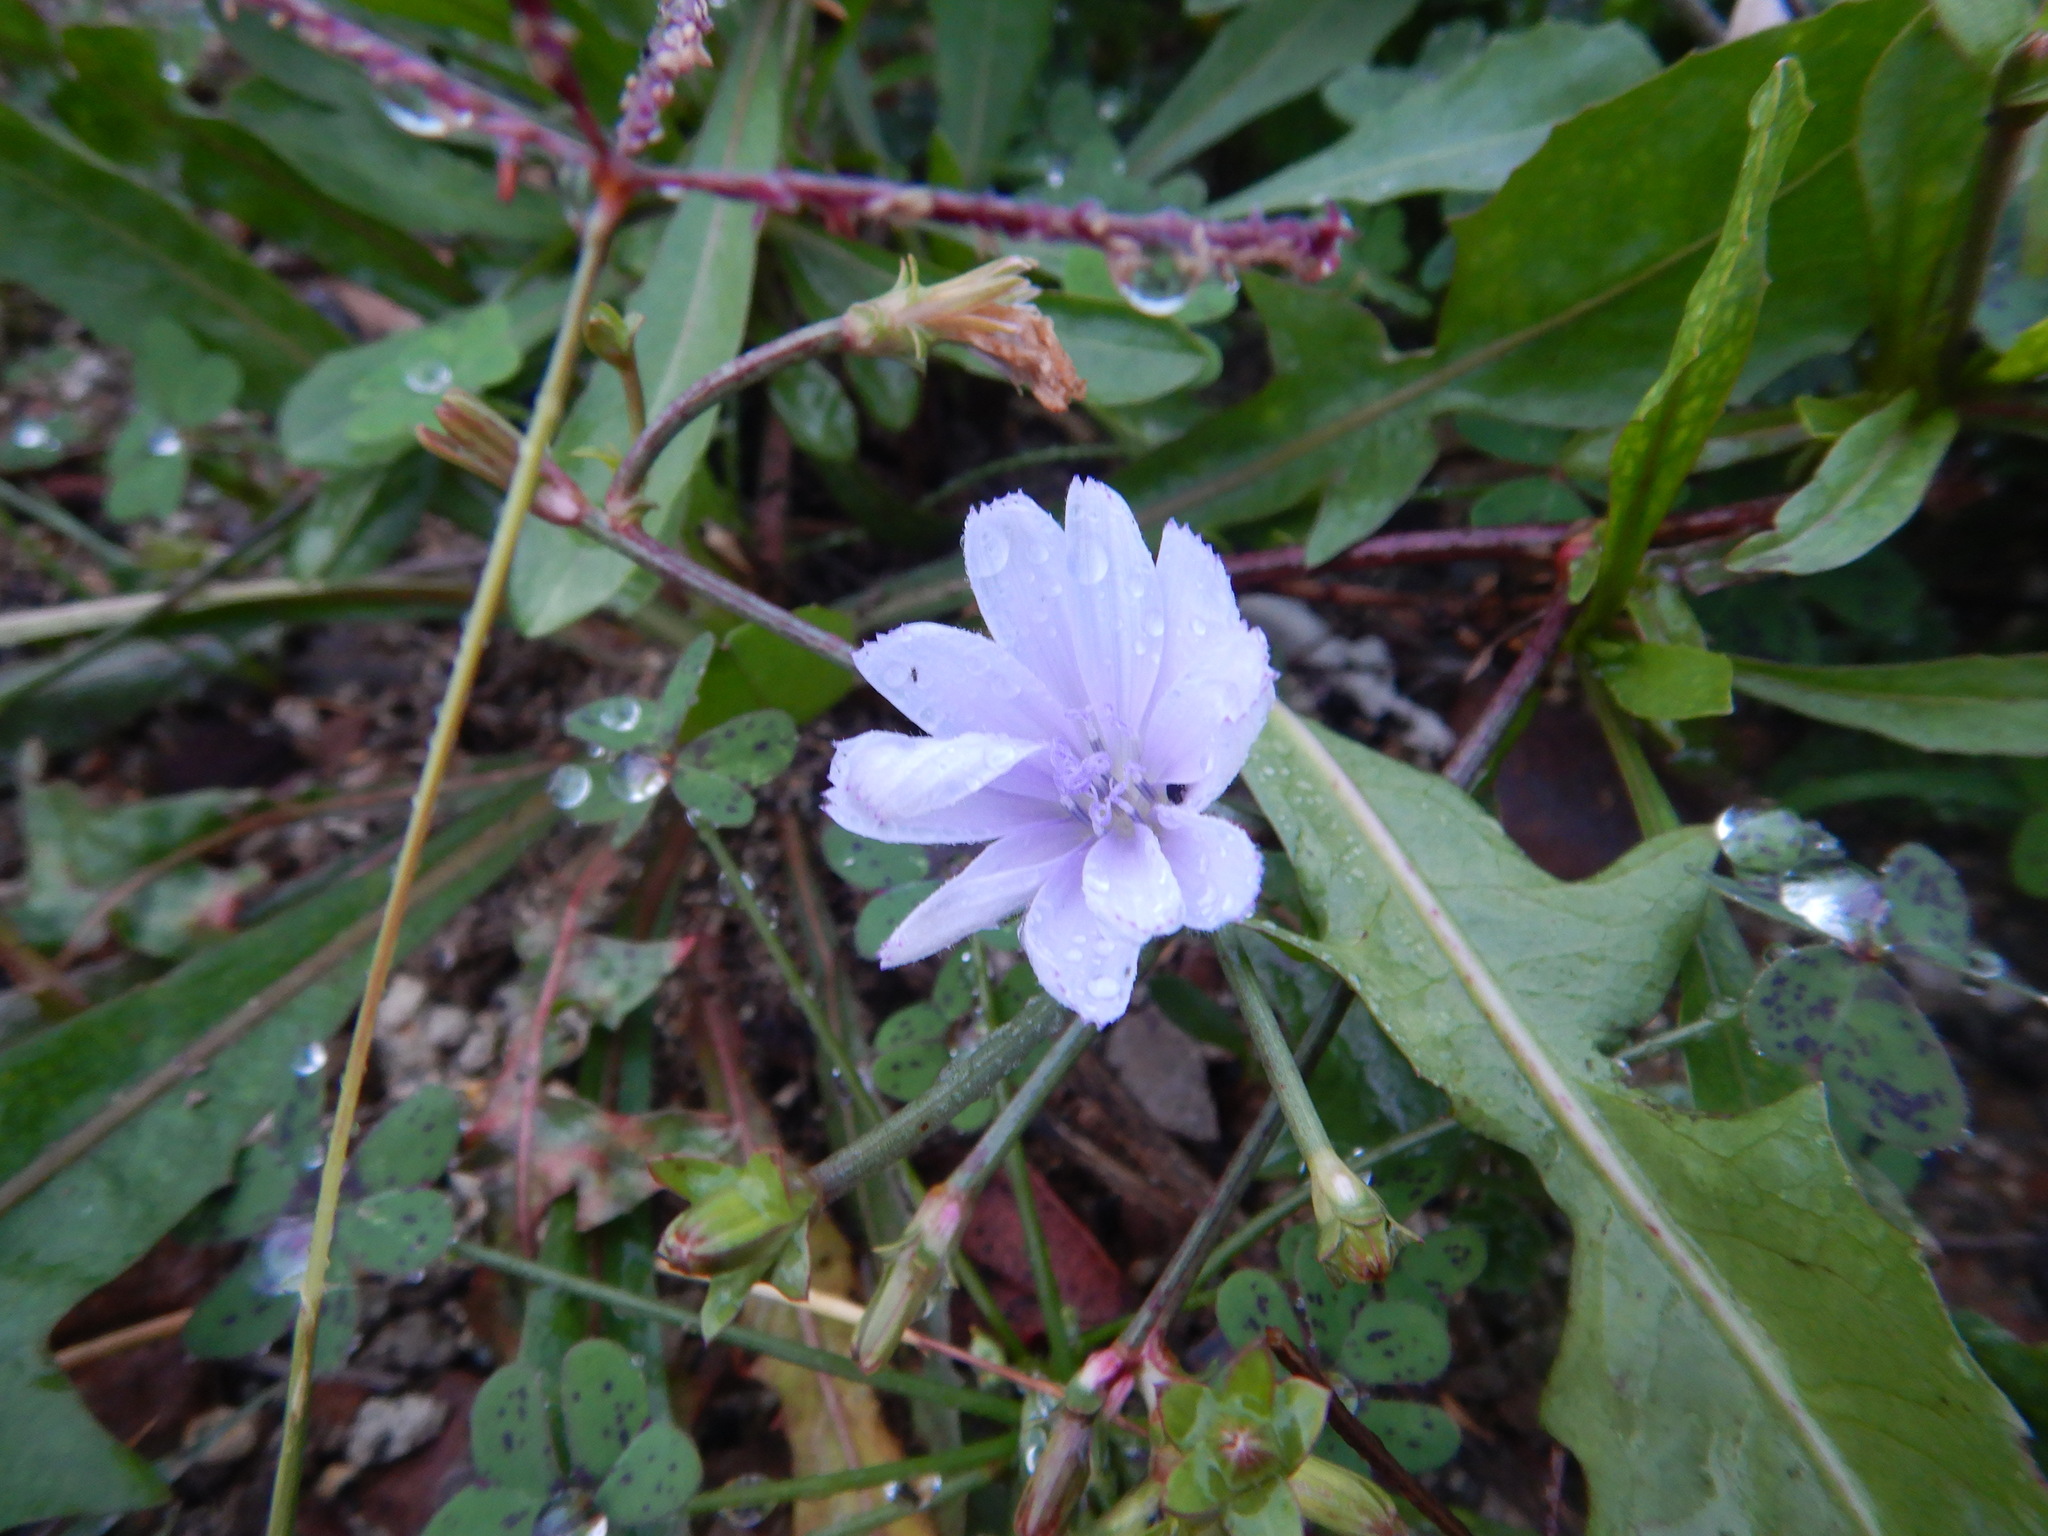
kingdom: Plantae
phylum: Tracheophyta
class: Magnoliopsida
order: Asterales
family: Asteraceae
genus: Cichorium
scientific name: Cichorium intybus
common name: Chicory
